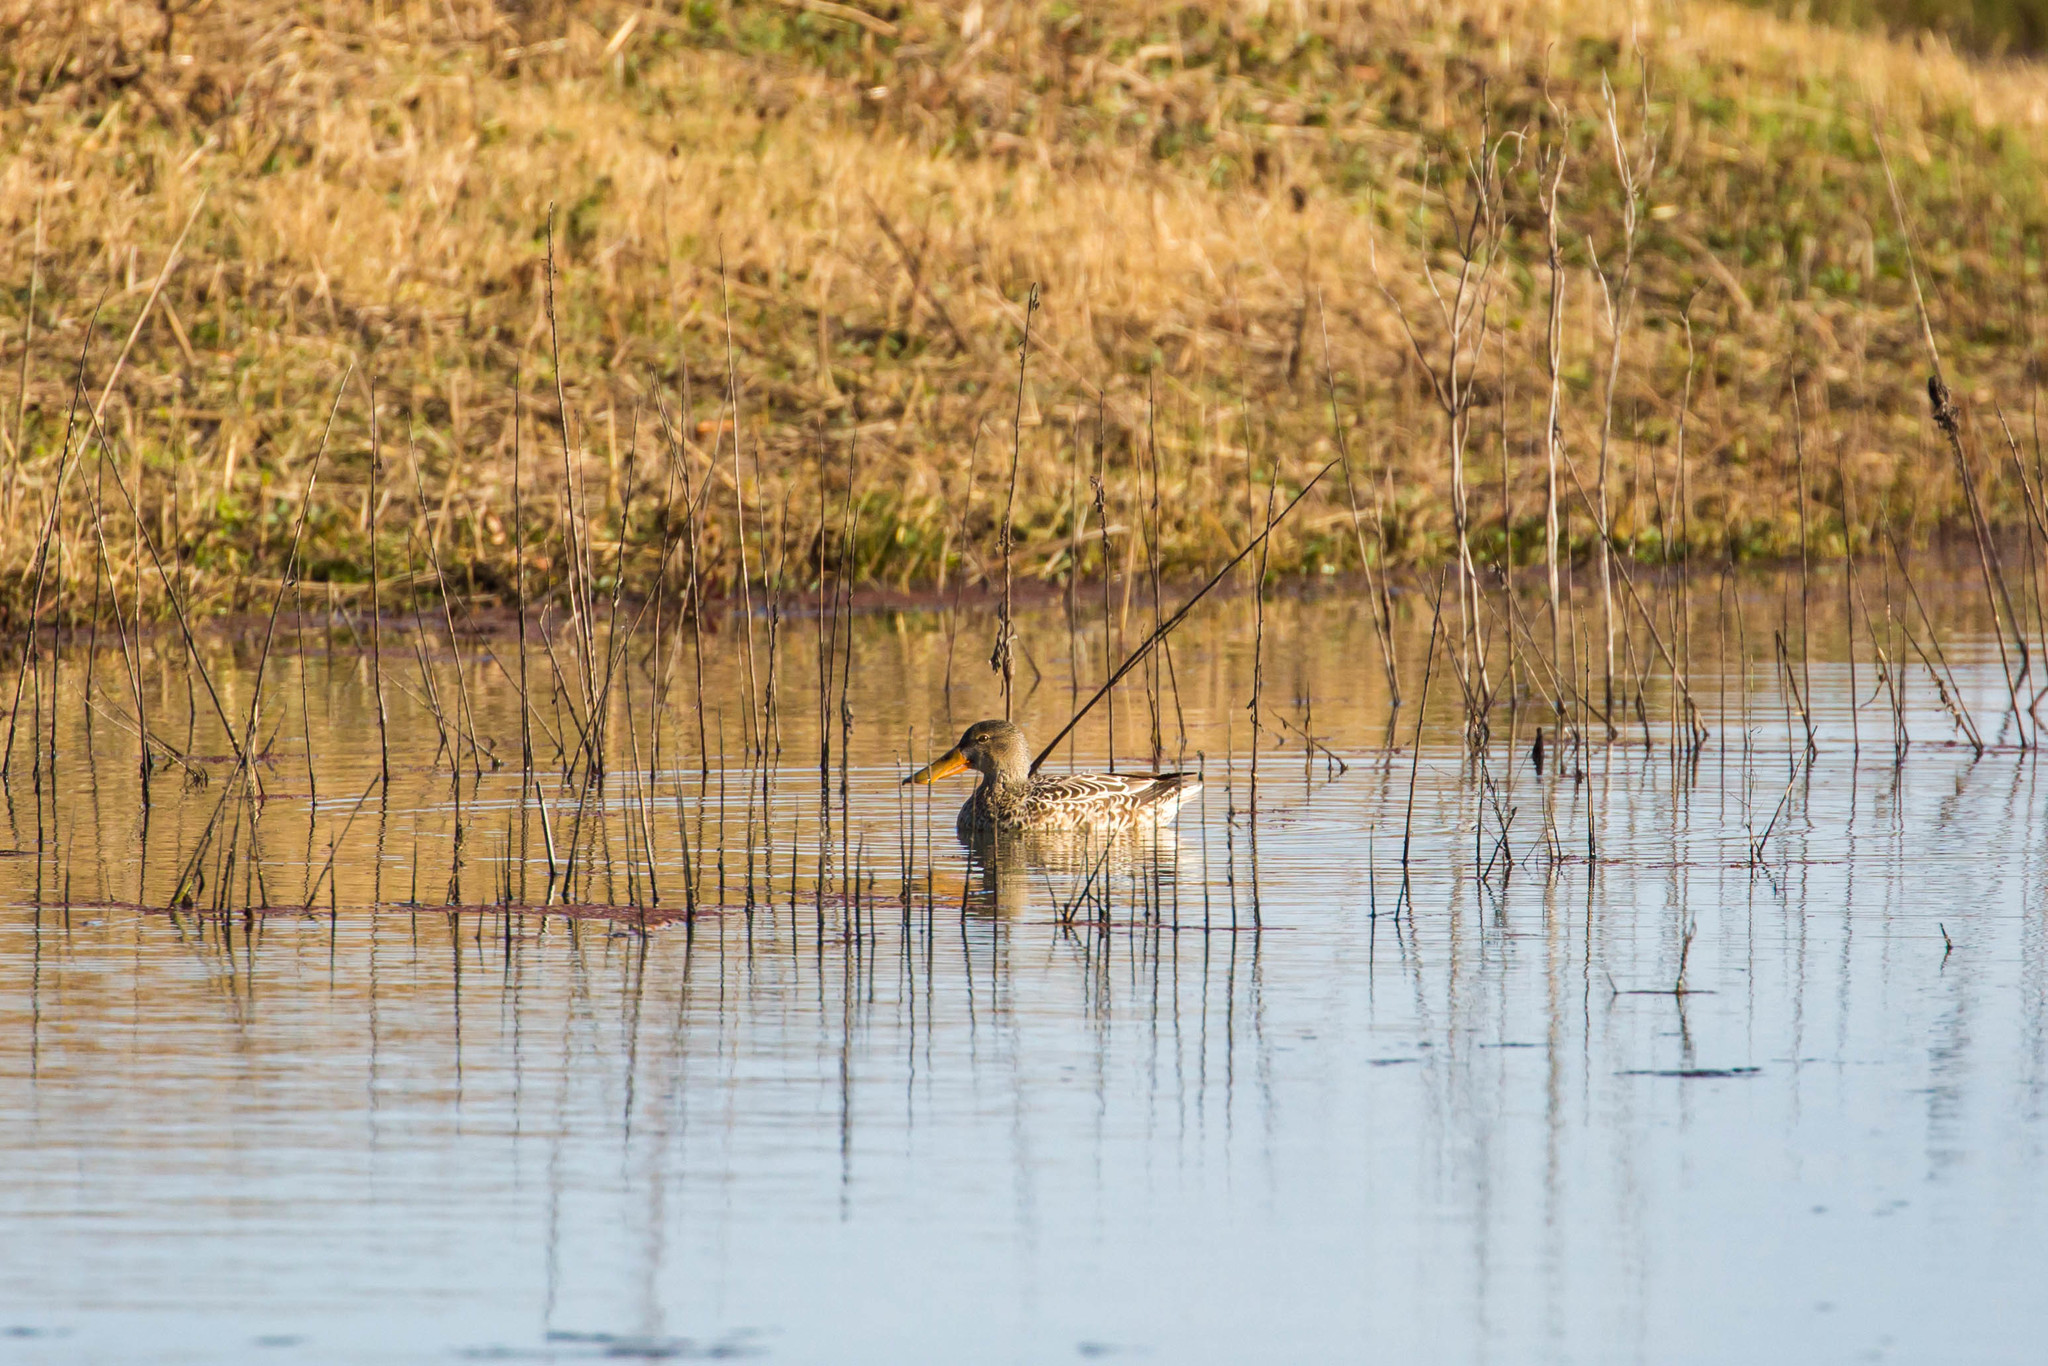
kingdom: Animalia
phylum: Chordata
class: Aves
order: Anseriformes
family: Anatidae
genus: Spatula
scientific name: Spatula clypeata
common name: Northern shoveler
